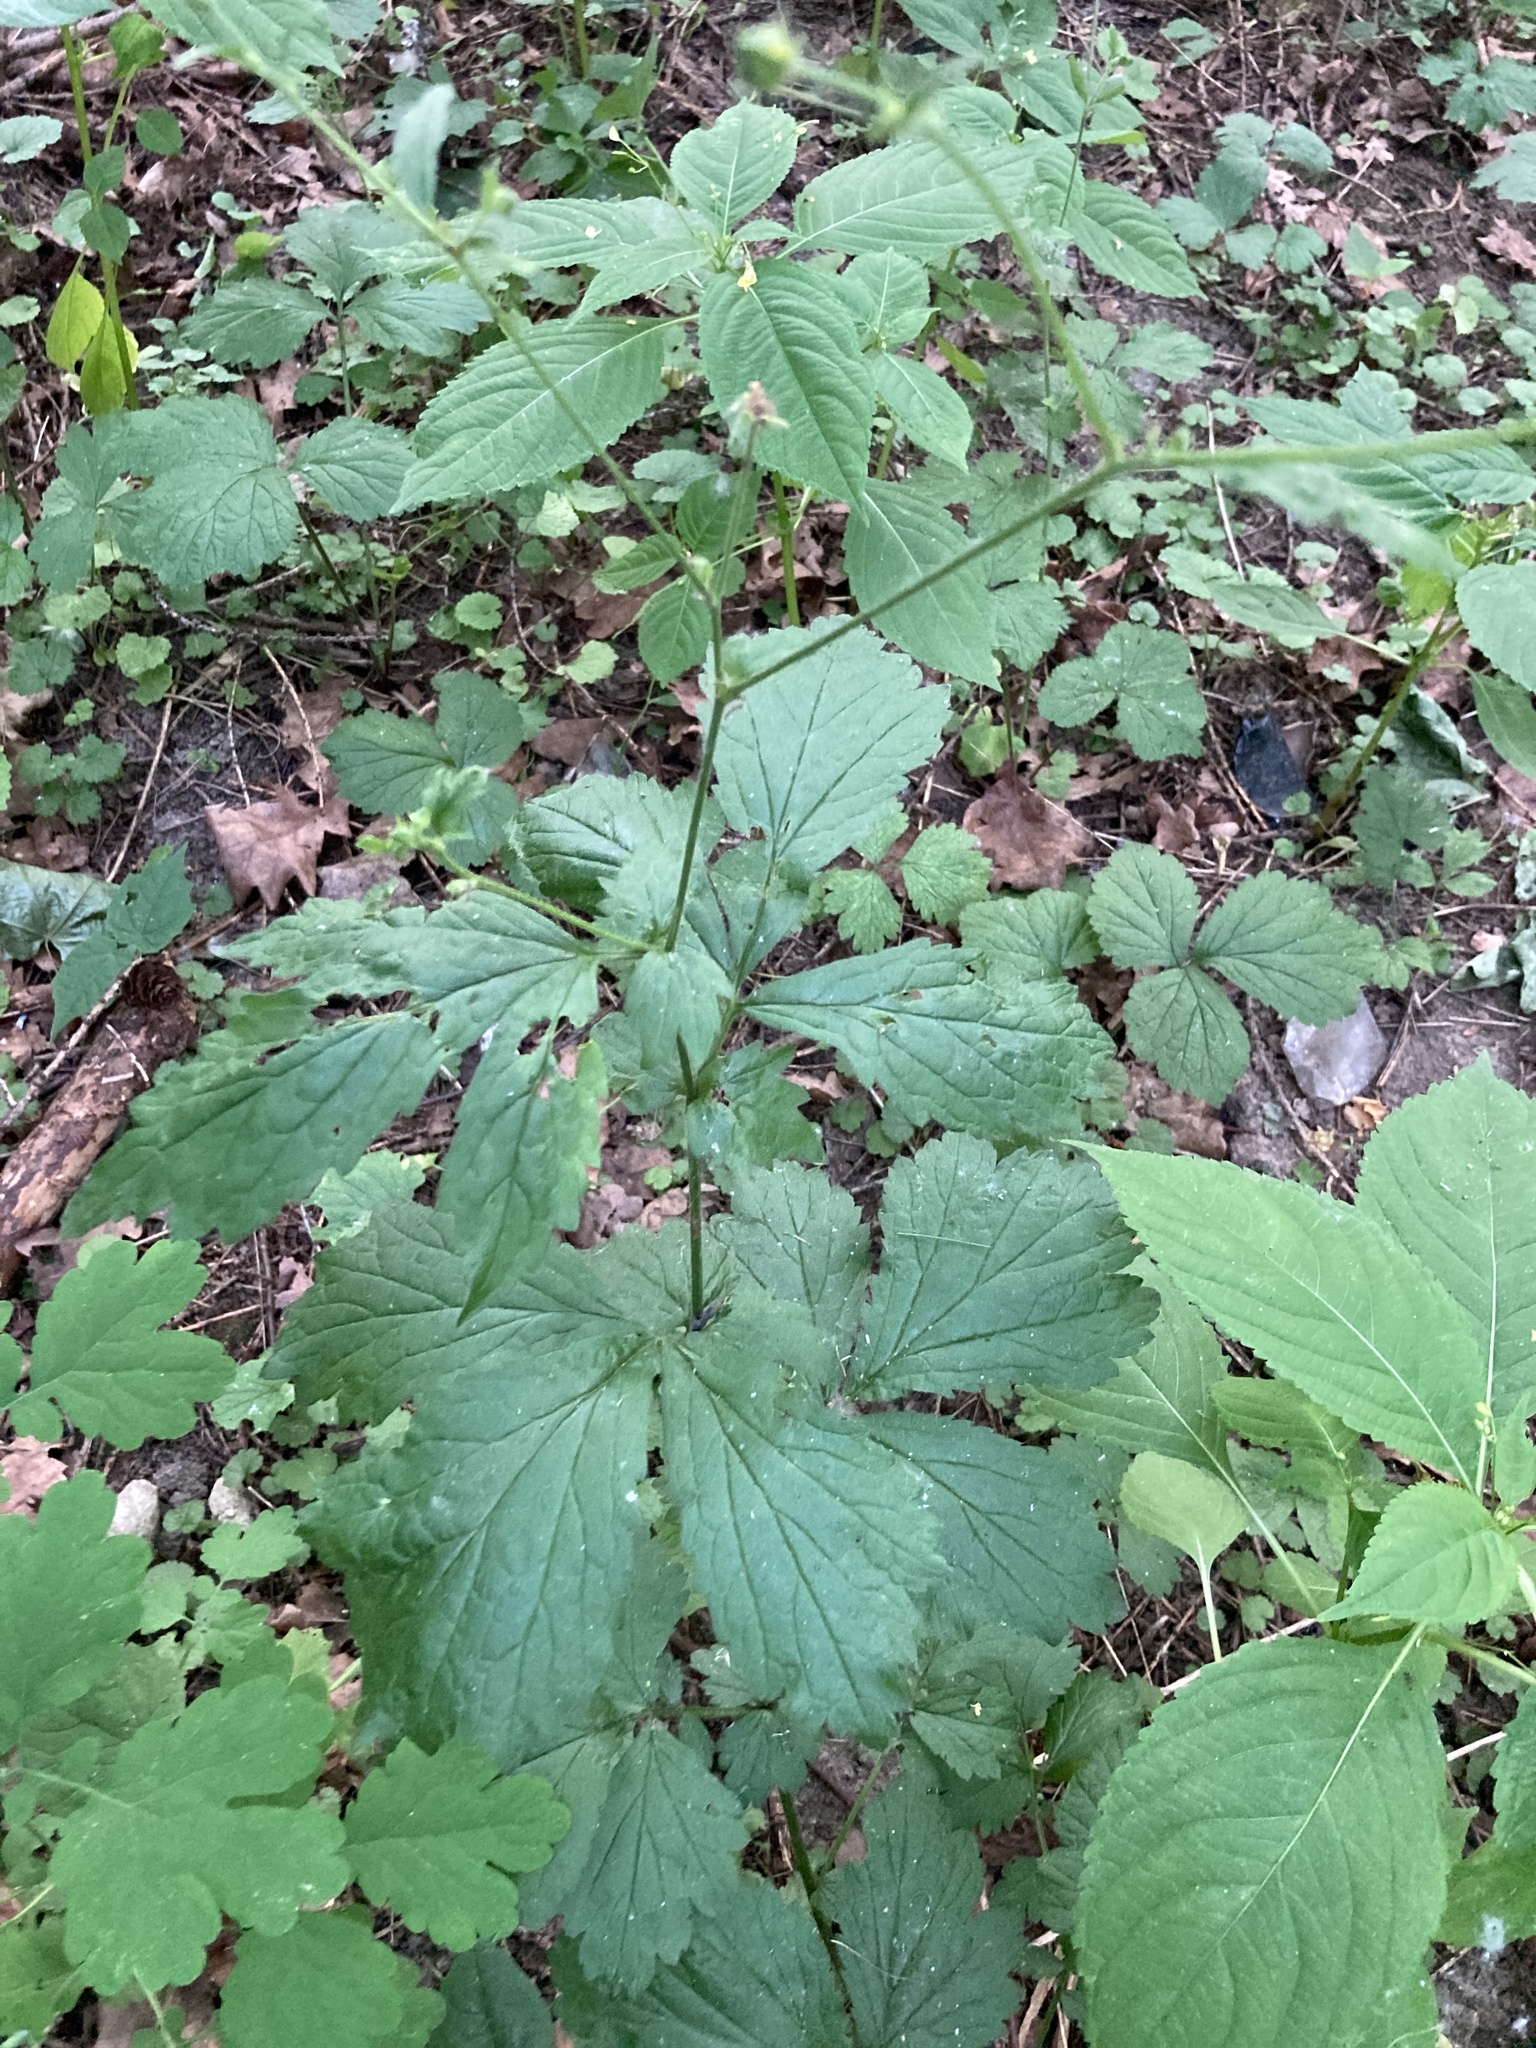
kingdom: Plantae
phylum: Tracheophyta
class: Magnoliopsida
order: Rosales
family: Rosaceae
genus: Geum
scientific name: Geum urbanum
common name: Wood avens
